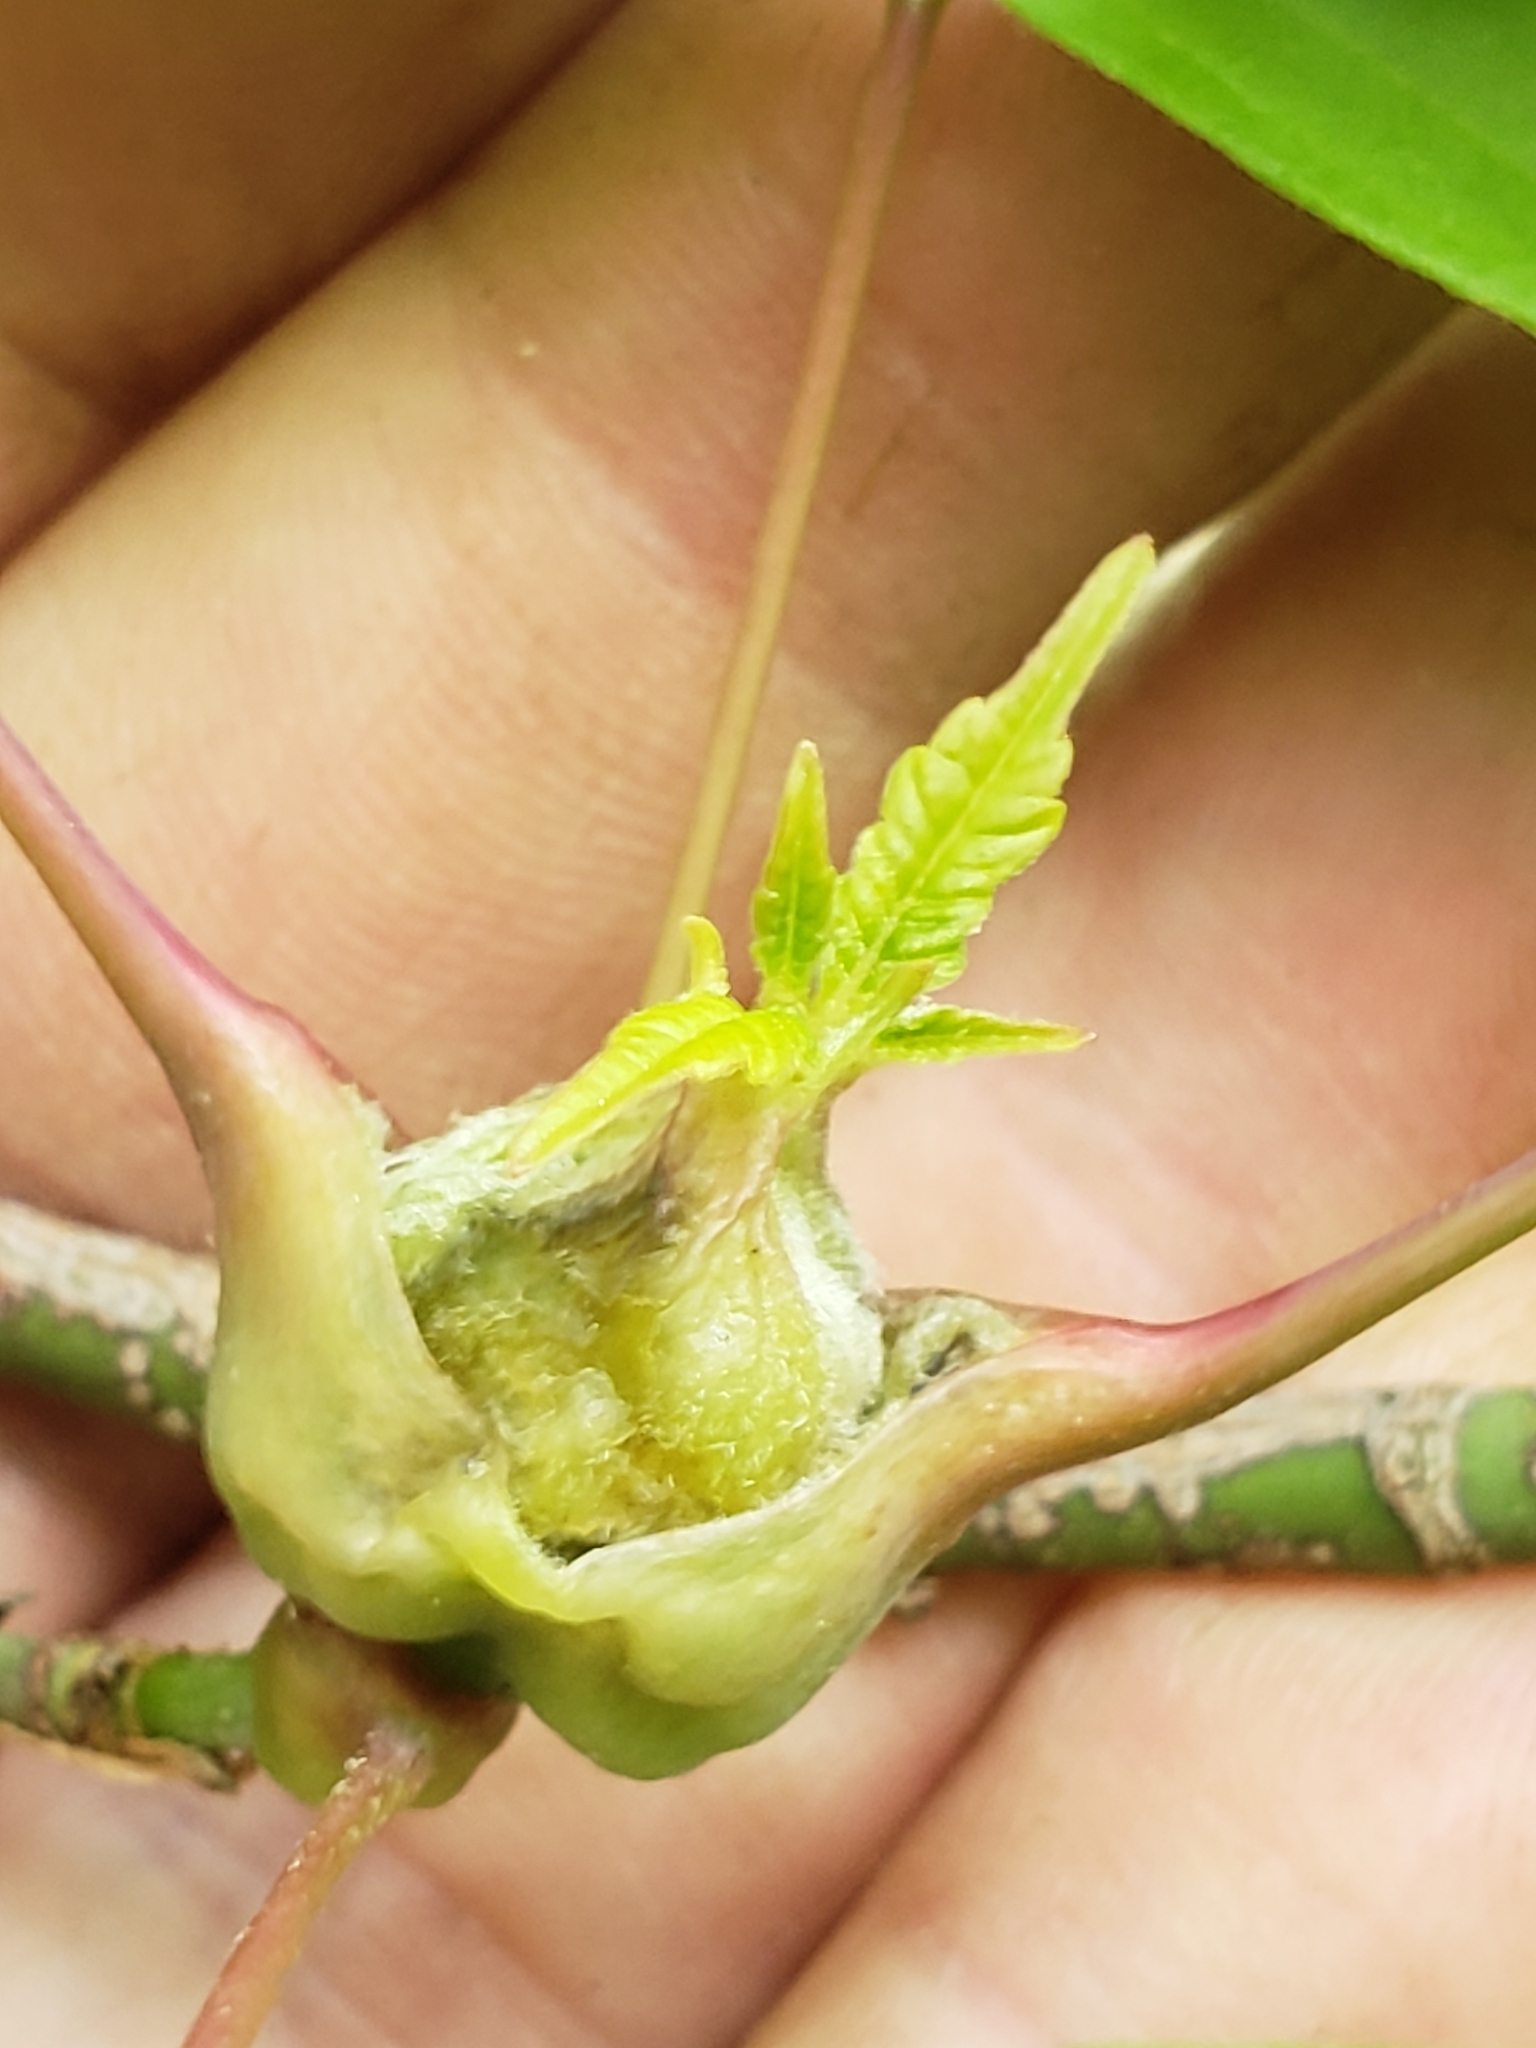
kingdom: Plantae
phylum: Tracheophyta
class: Magnoliopsida
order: Sapindales
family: Sapindaceae
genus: Acer
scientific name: Acer negundo
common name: Ashleaf maple
